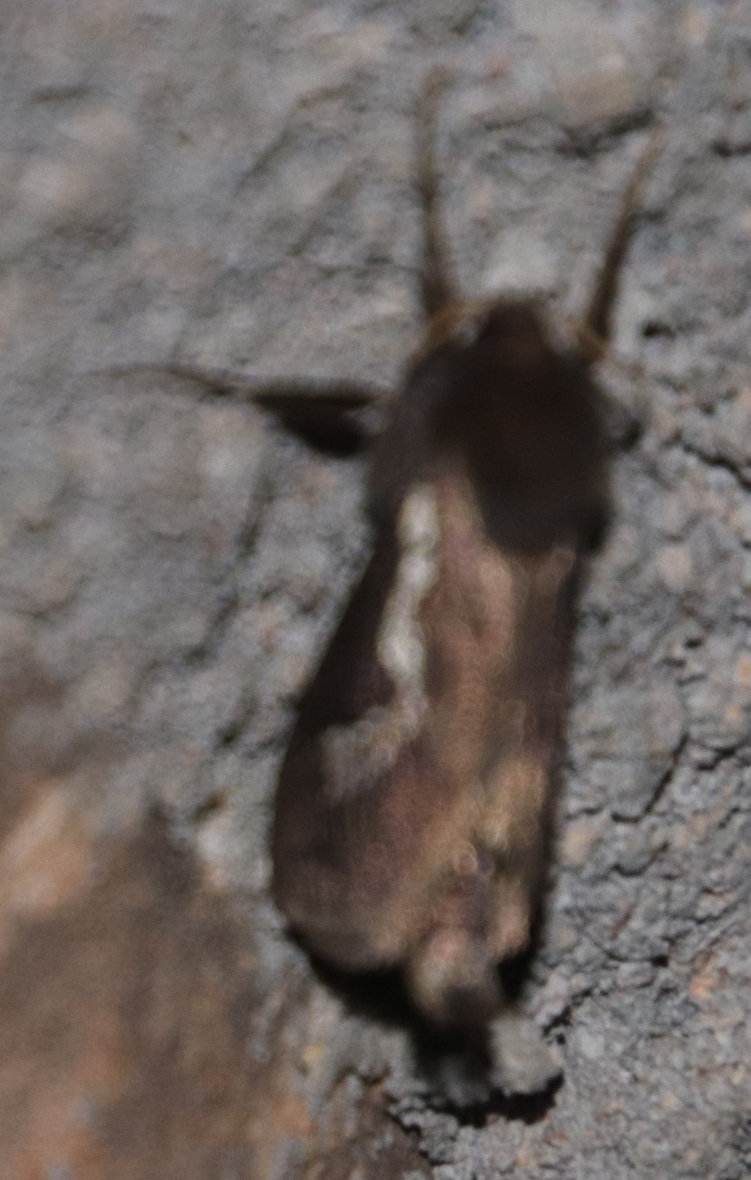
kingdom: Animalia
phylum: Arthropoda
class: Insecta
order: Lepidoptera
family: Hepialidae
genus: Eudalaca
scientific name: Eudalaca homoterma
